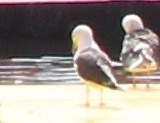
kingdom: Animalia
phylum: Chordata
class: Aves
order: Charadriiformes
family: Laridae
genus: Larus
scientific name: Larus fuscus
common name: Lesser black-backed gull
